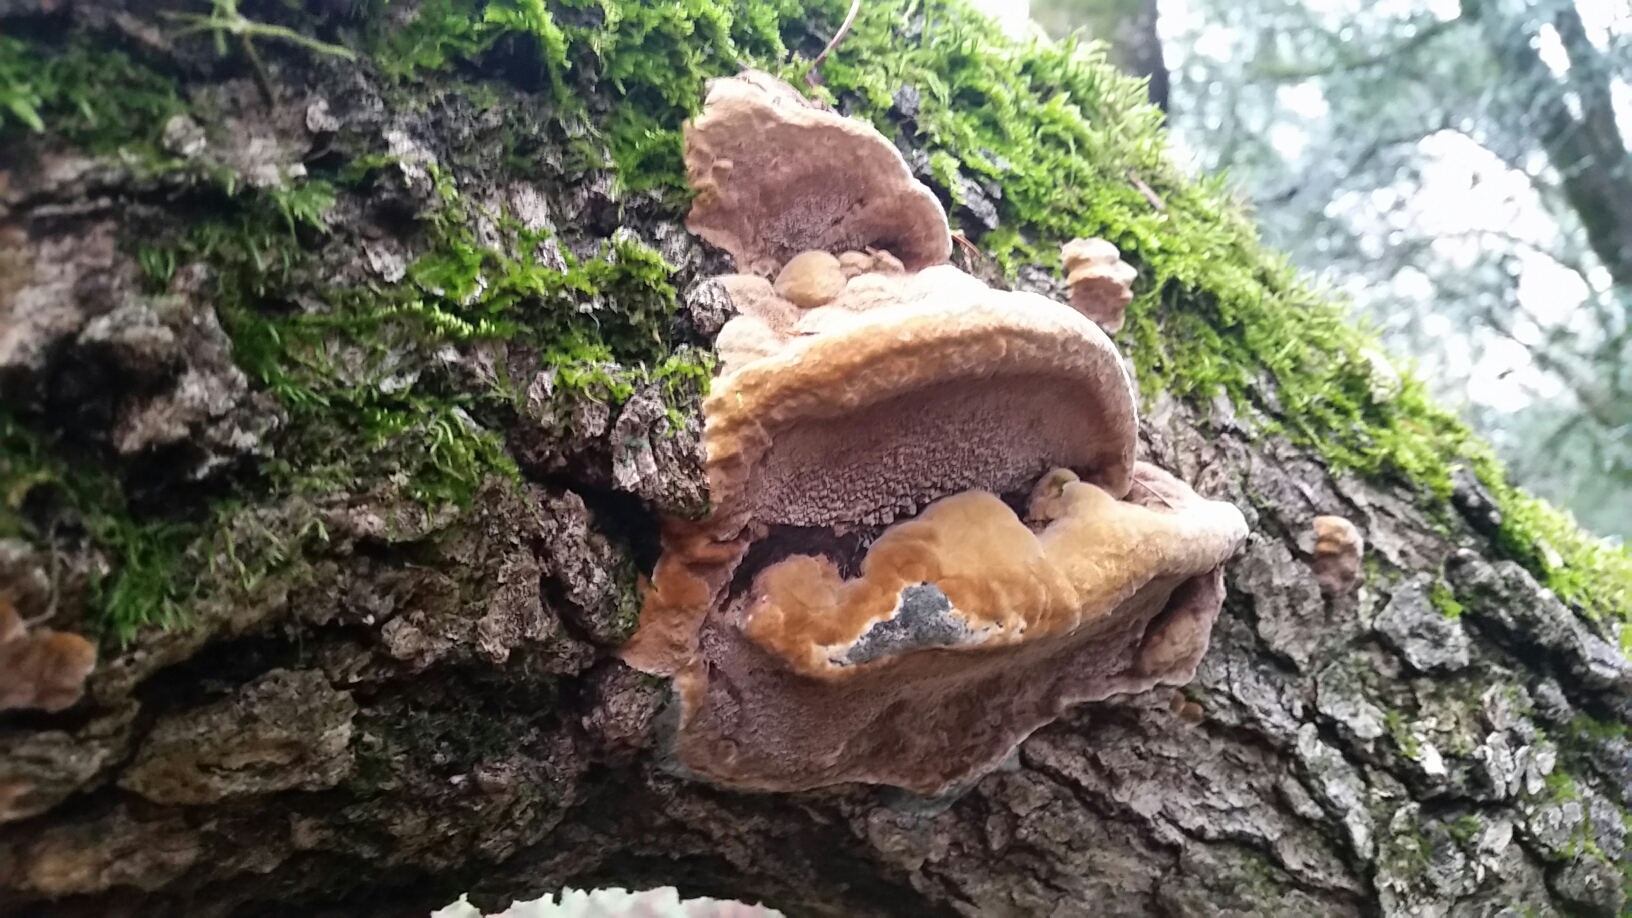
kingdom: Fungi
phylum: Basidiomycota
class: Agaricomycetes
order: Hymenochaetales
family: Hymenochaetaceae
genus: Phellinus
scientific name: Phellinus gilvus
